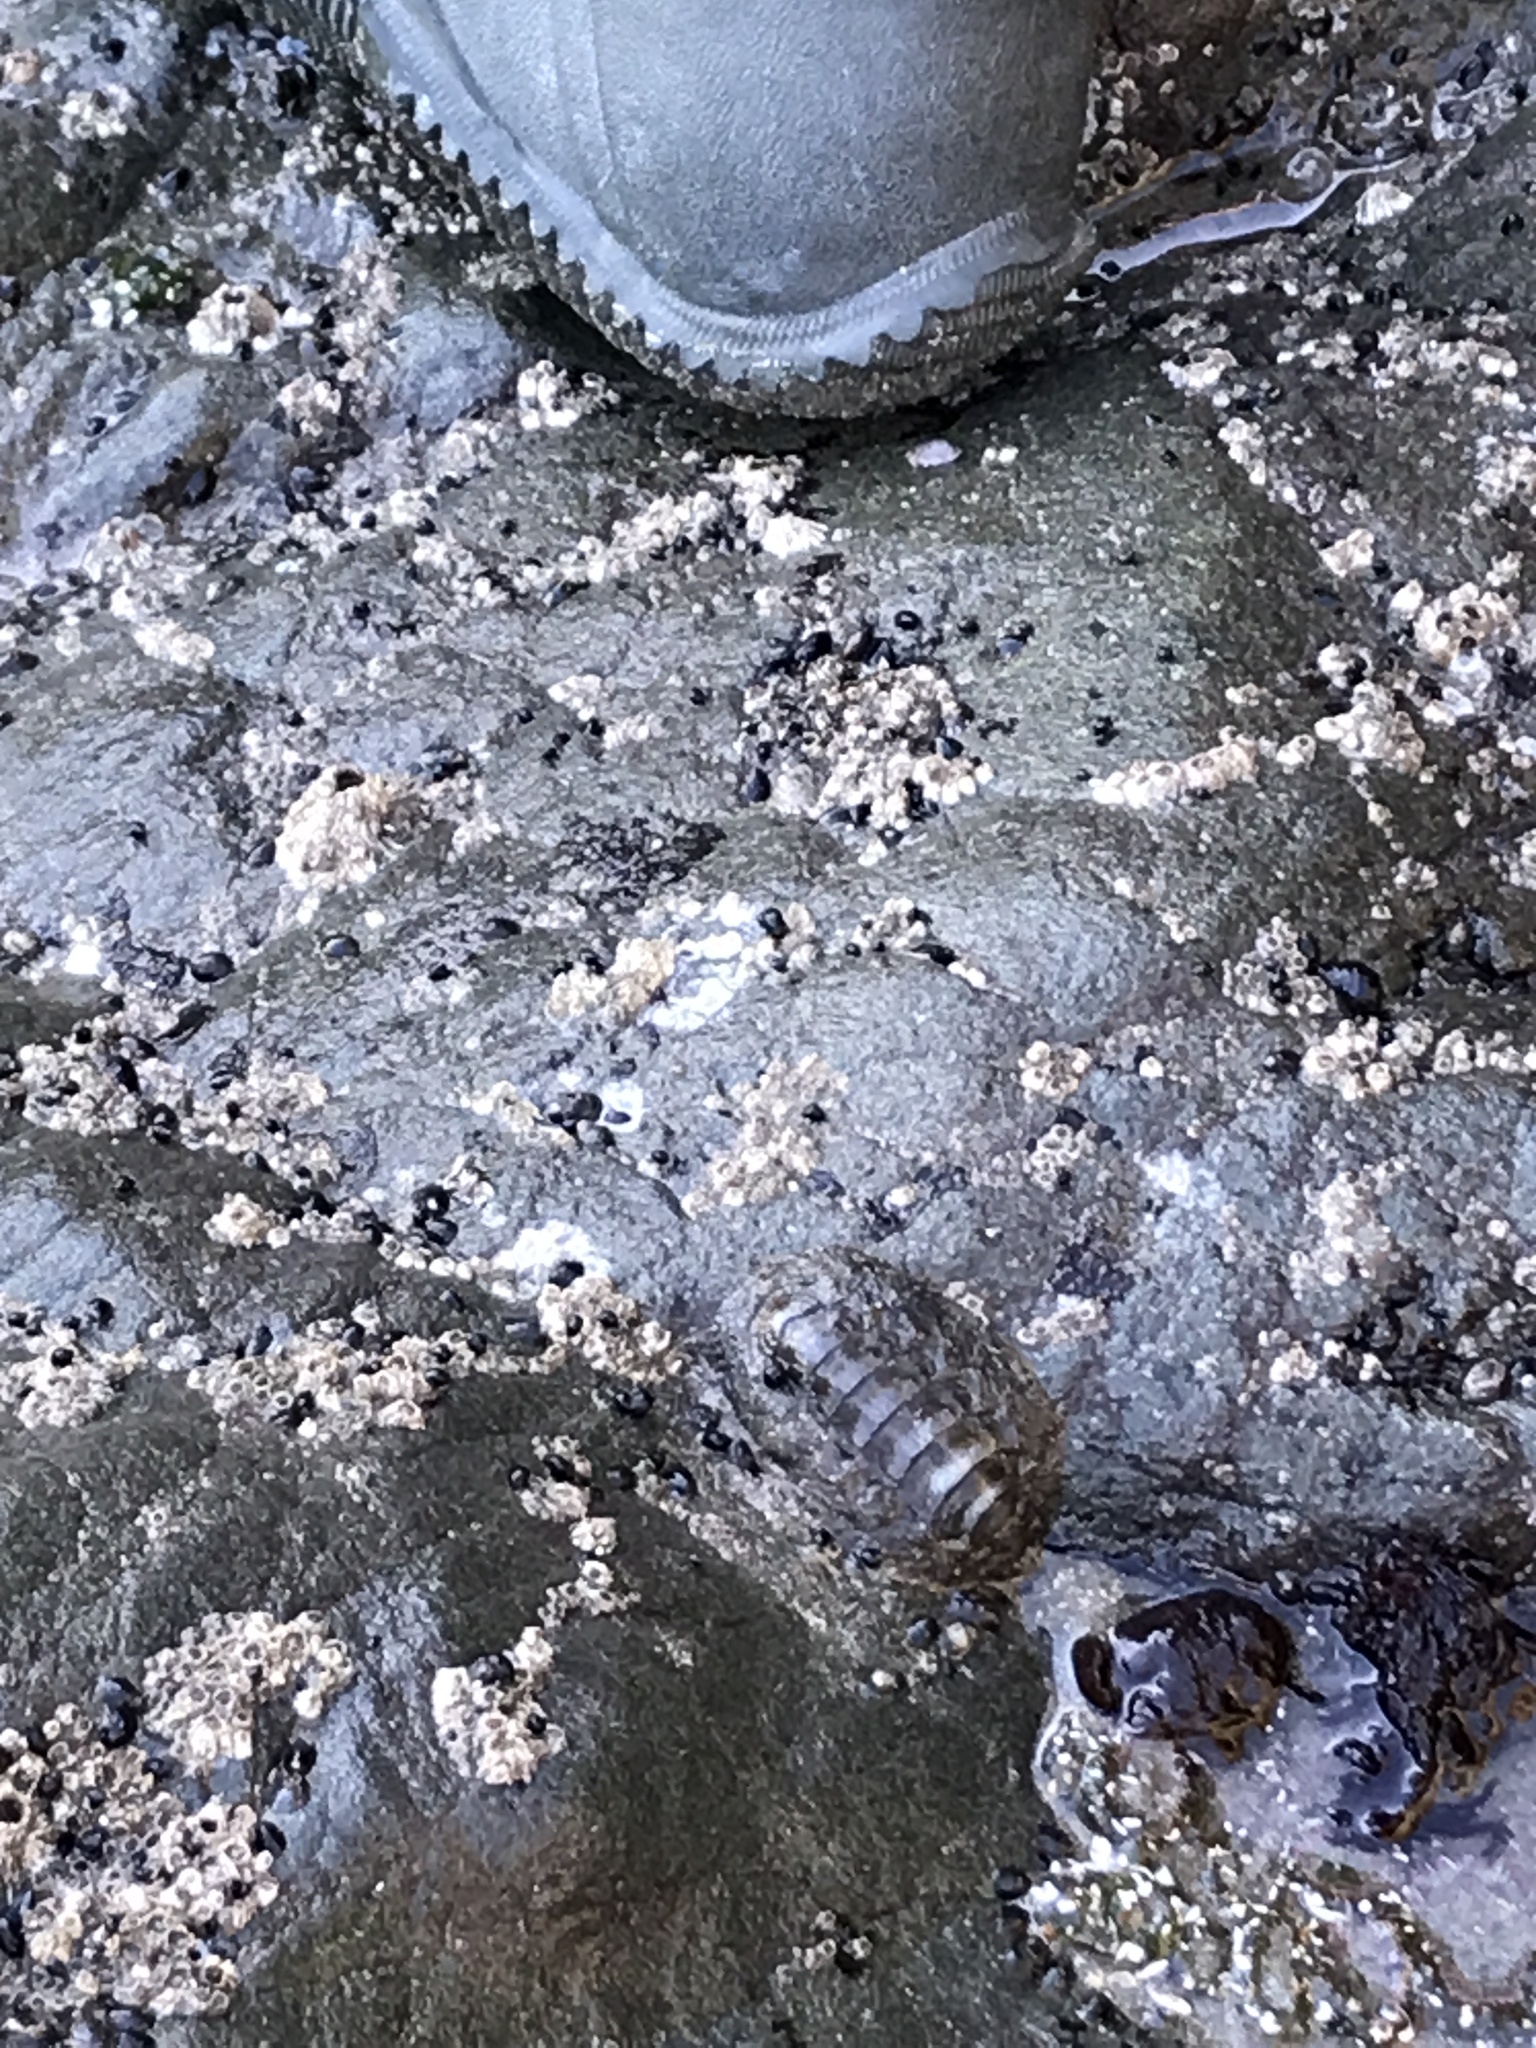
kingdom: Animalia
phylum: Mollusca
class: Polyplacophora
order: Chitonida
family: Mopaliidae
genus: Mopalia
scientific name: Mopalia muscosa
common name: Mossy chiton
